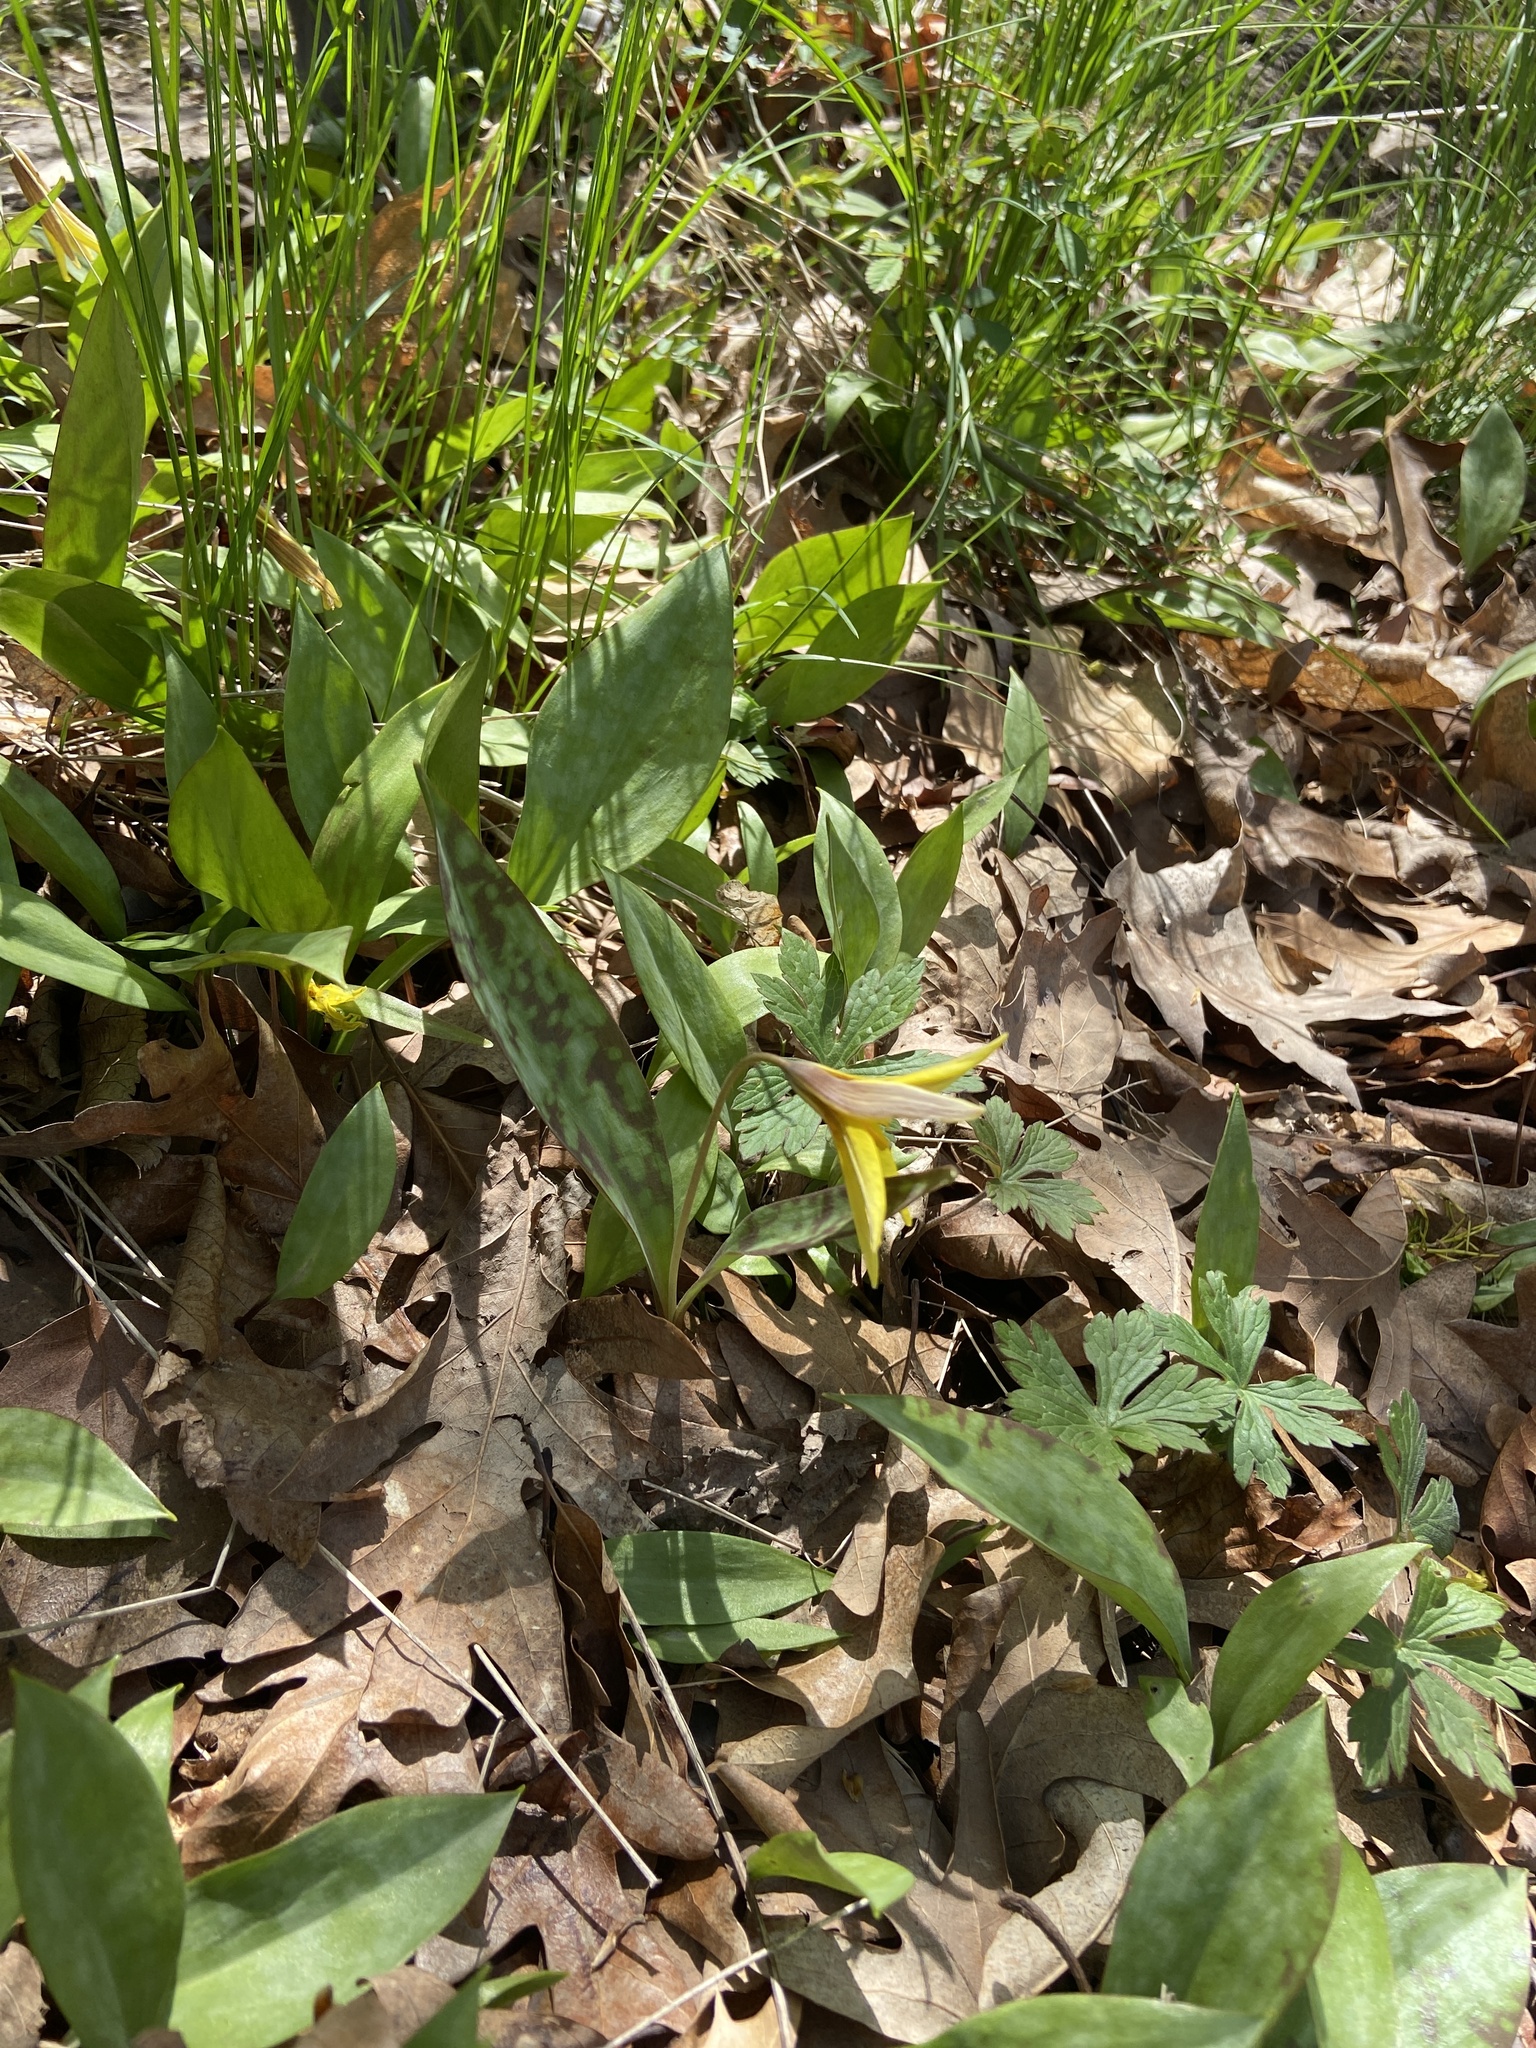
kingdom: Plantae
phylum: Tracheophyta
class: Liliopsida
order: Liliales
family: Liliaceae
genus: Erythronium
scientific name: Erythronium americanum
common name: Yellow adder's-tongue
